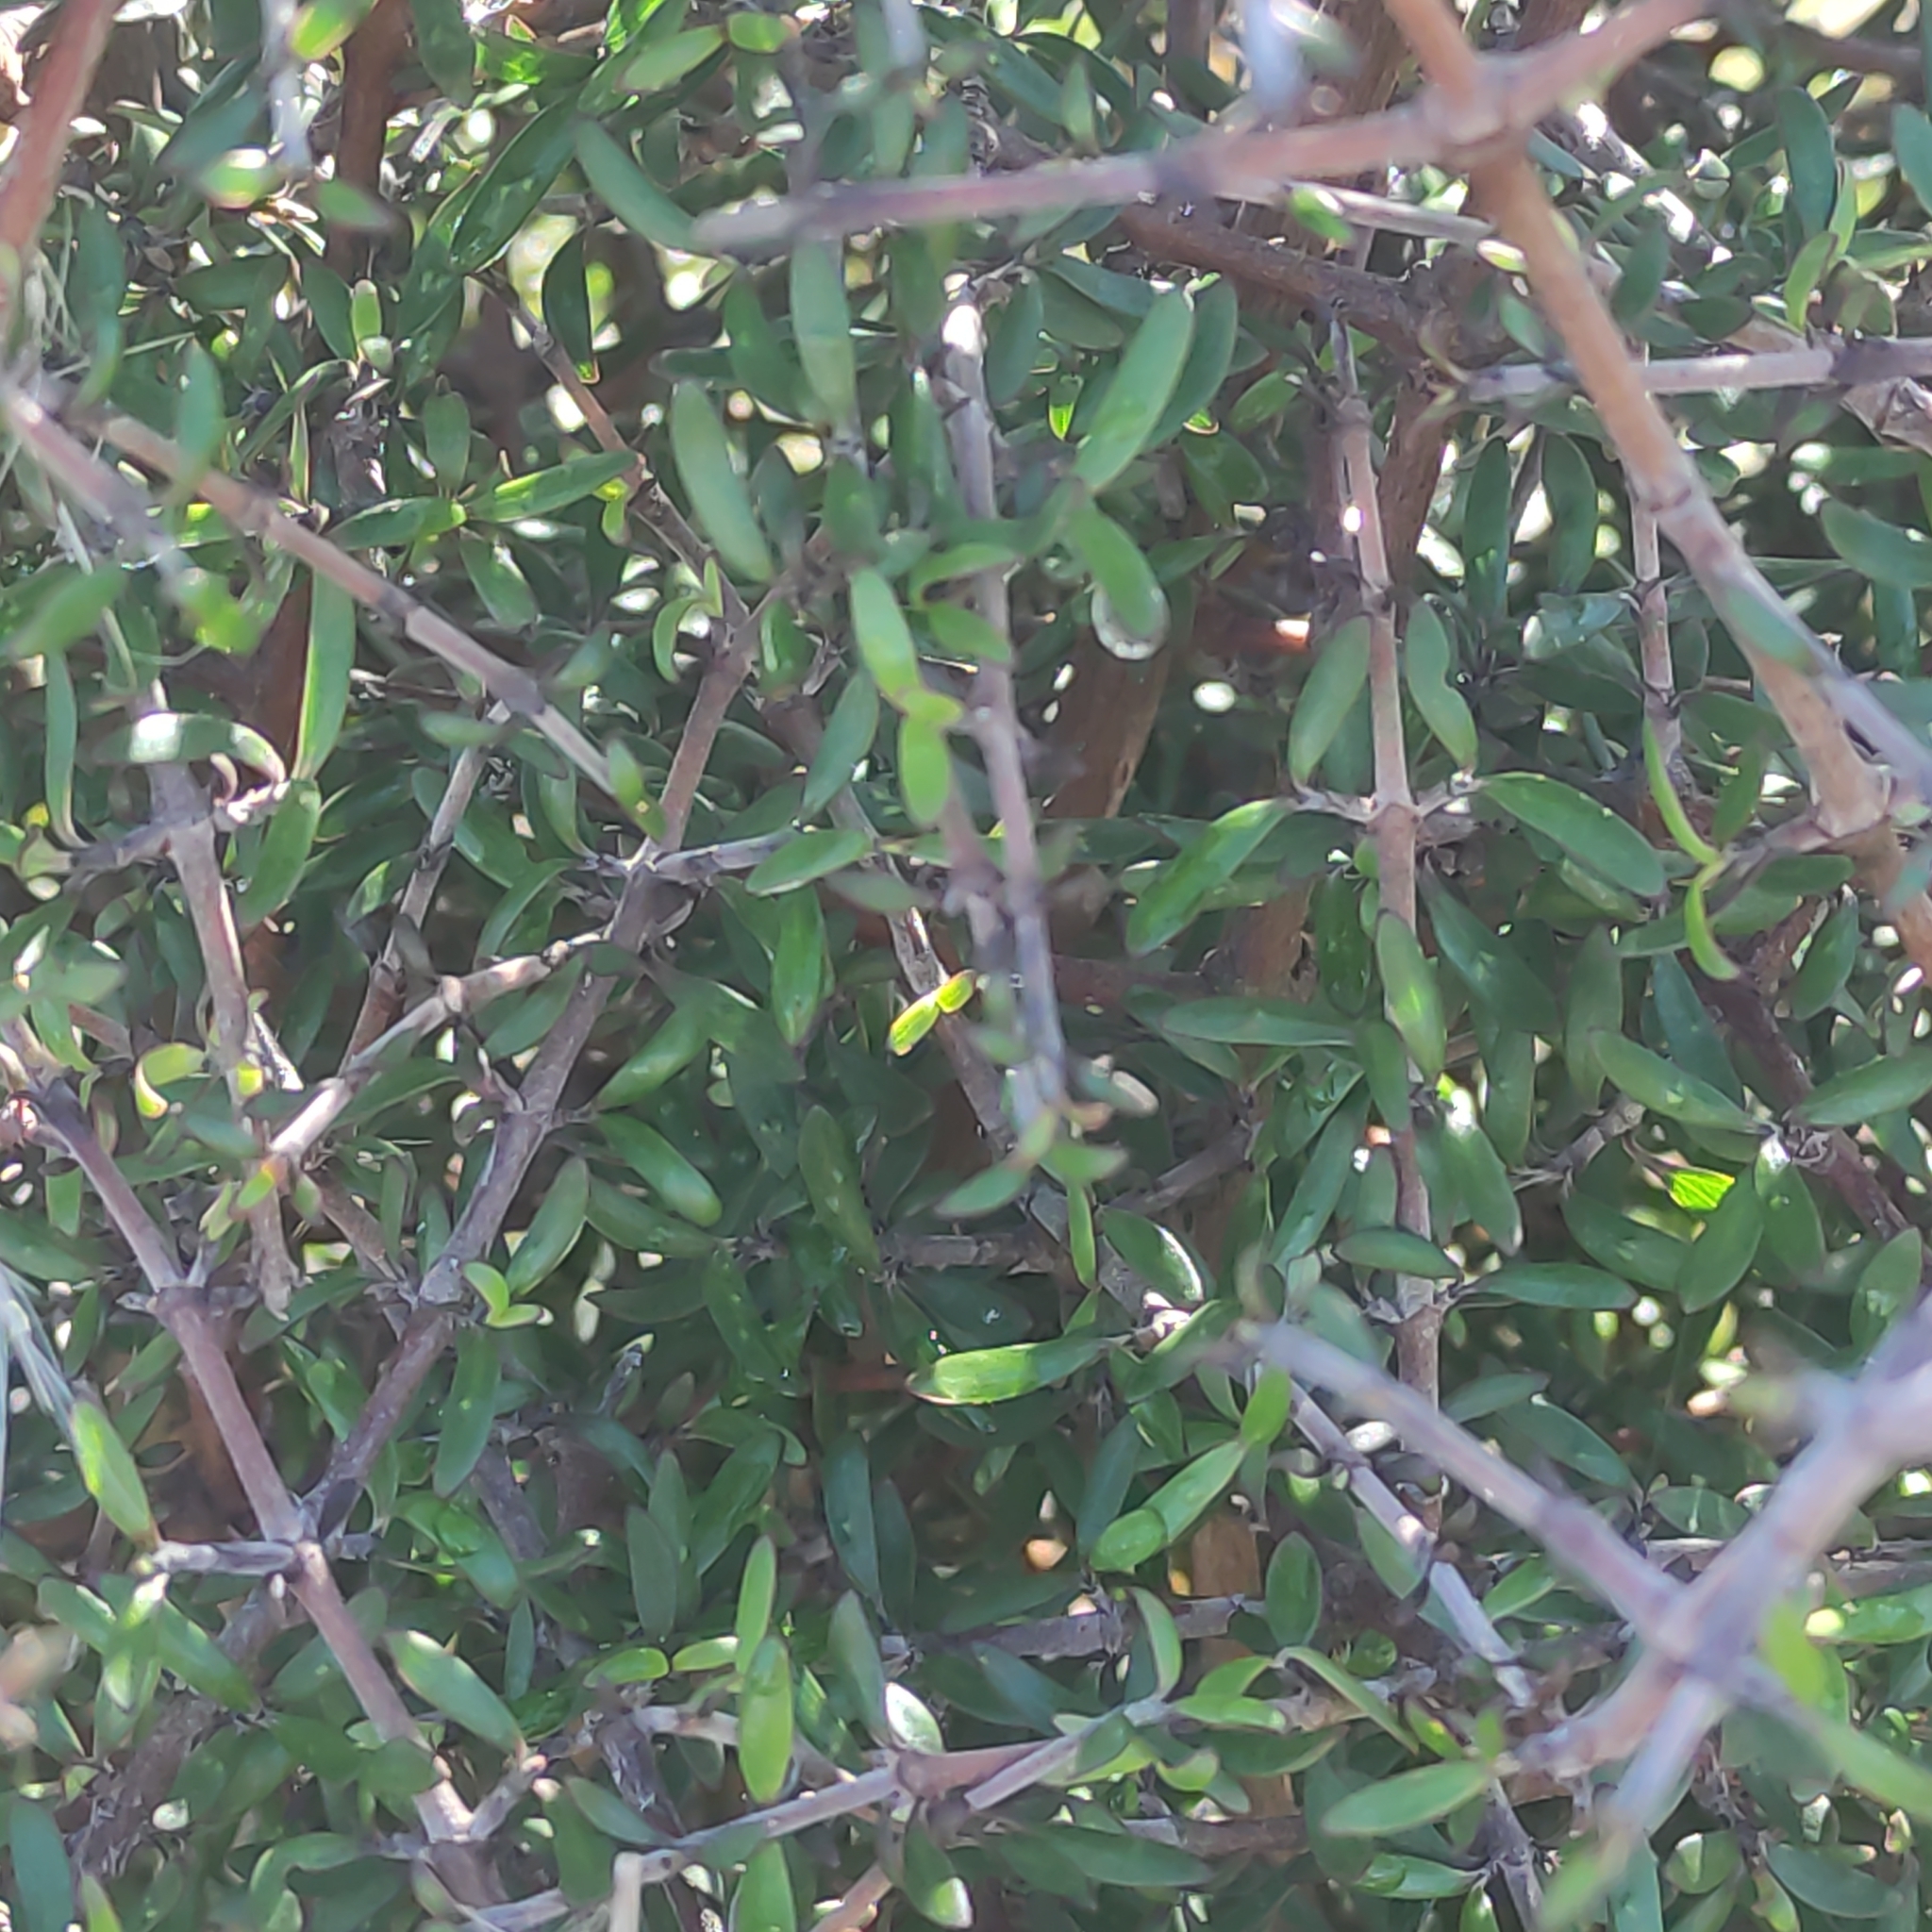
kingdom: Plantae
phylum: Tracheophyta
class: Magnoliopsida
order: Gentianales
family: Rubiaceae
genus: Coprosma
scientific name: Coprosma propinqua
